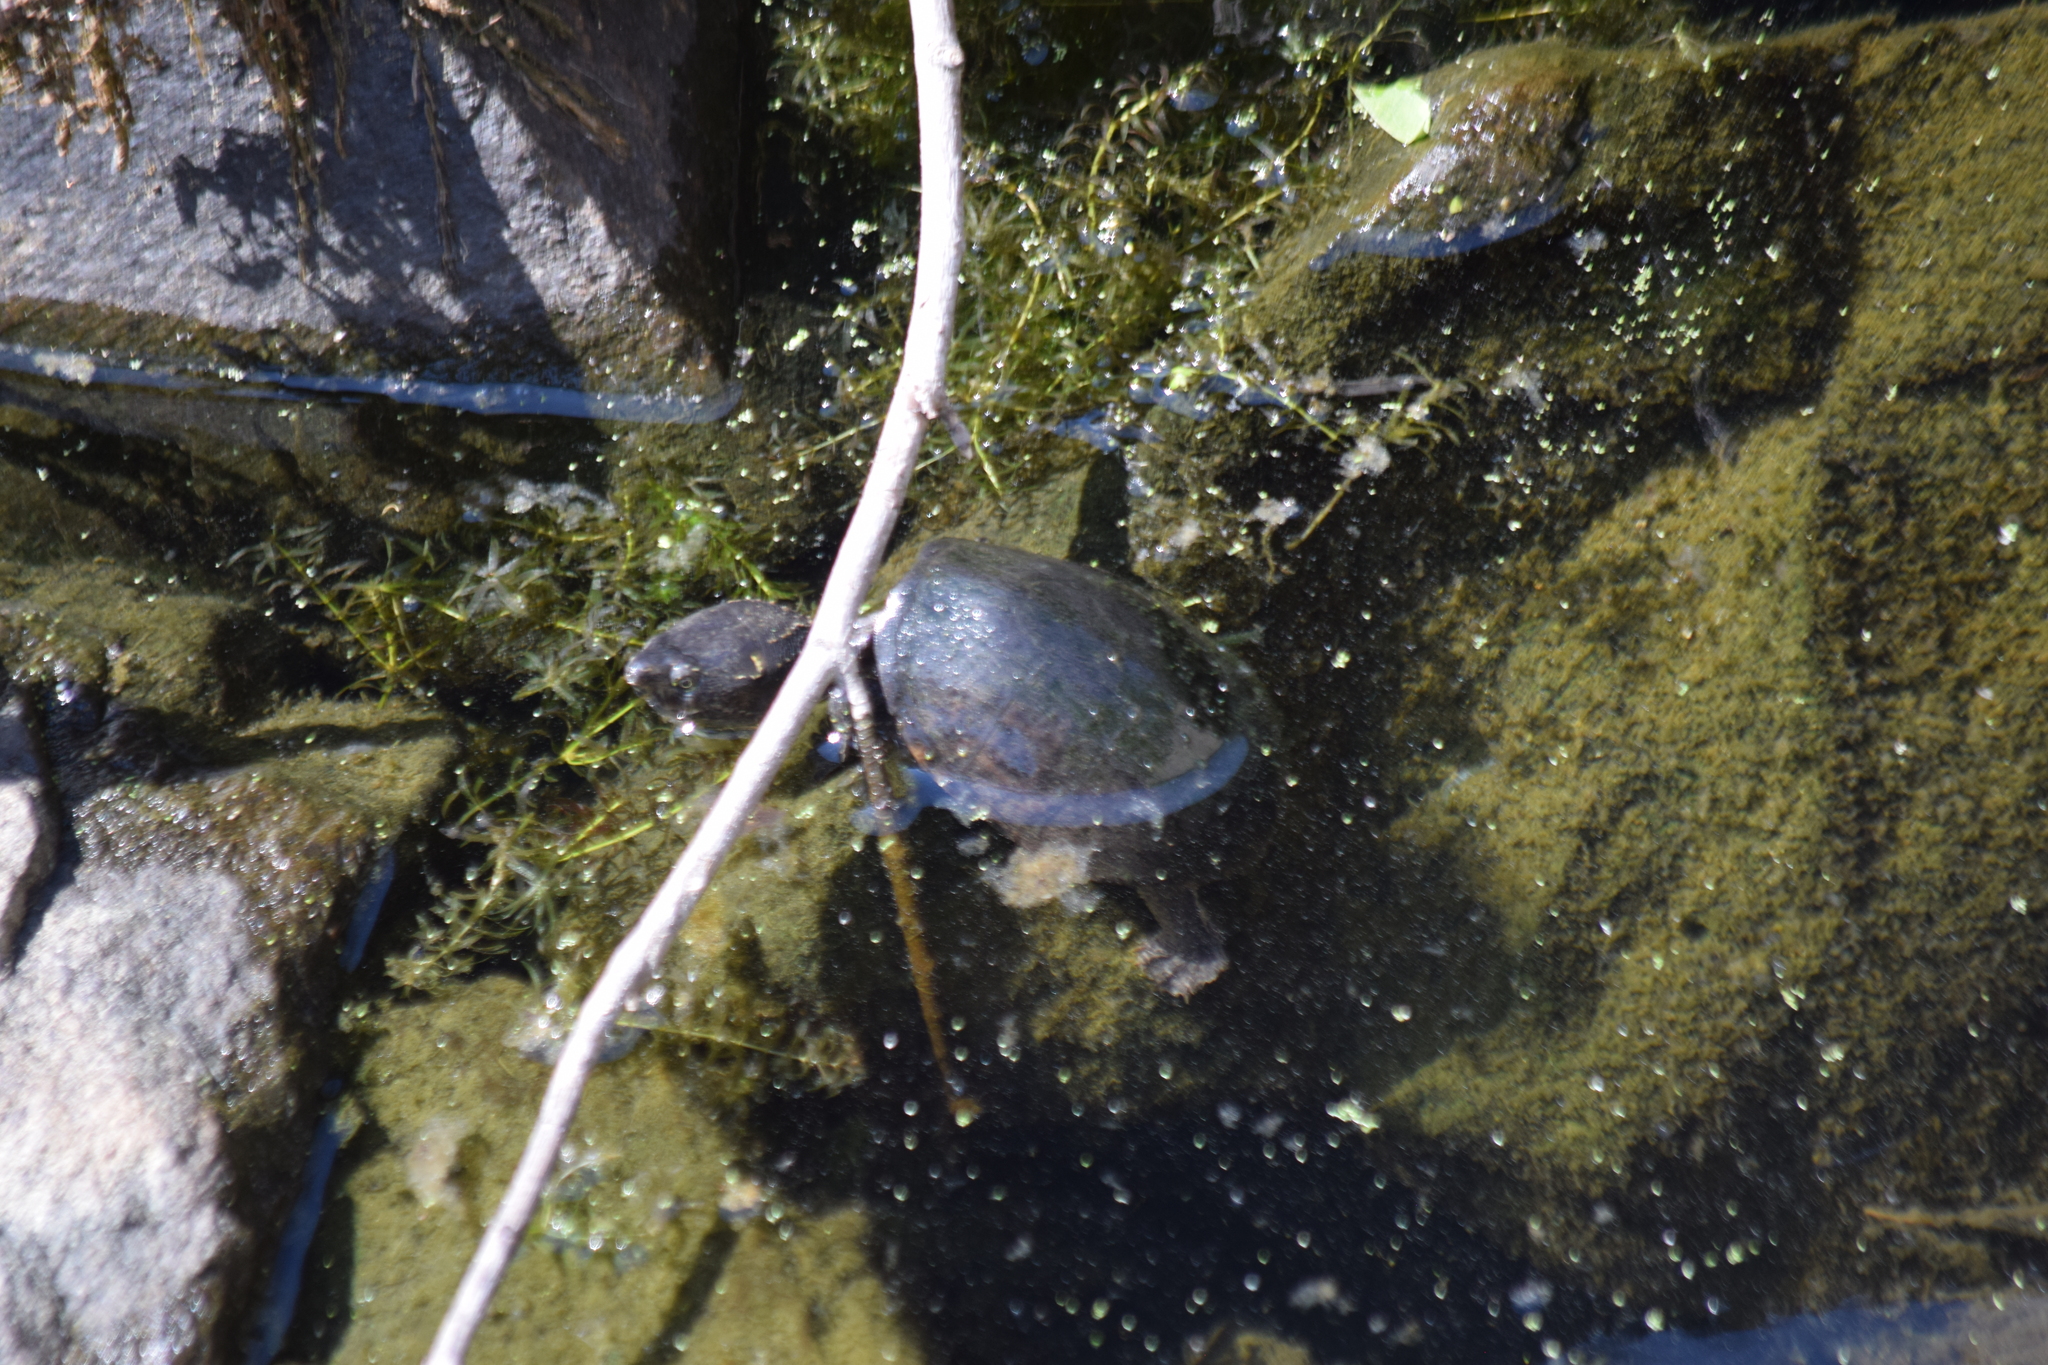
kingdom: Animalia
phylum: Chordata
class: Testudines
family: Kinosternidae
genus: Sternotherus
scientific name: Sternotherus odoratus
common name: Common musk turtle
